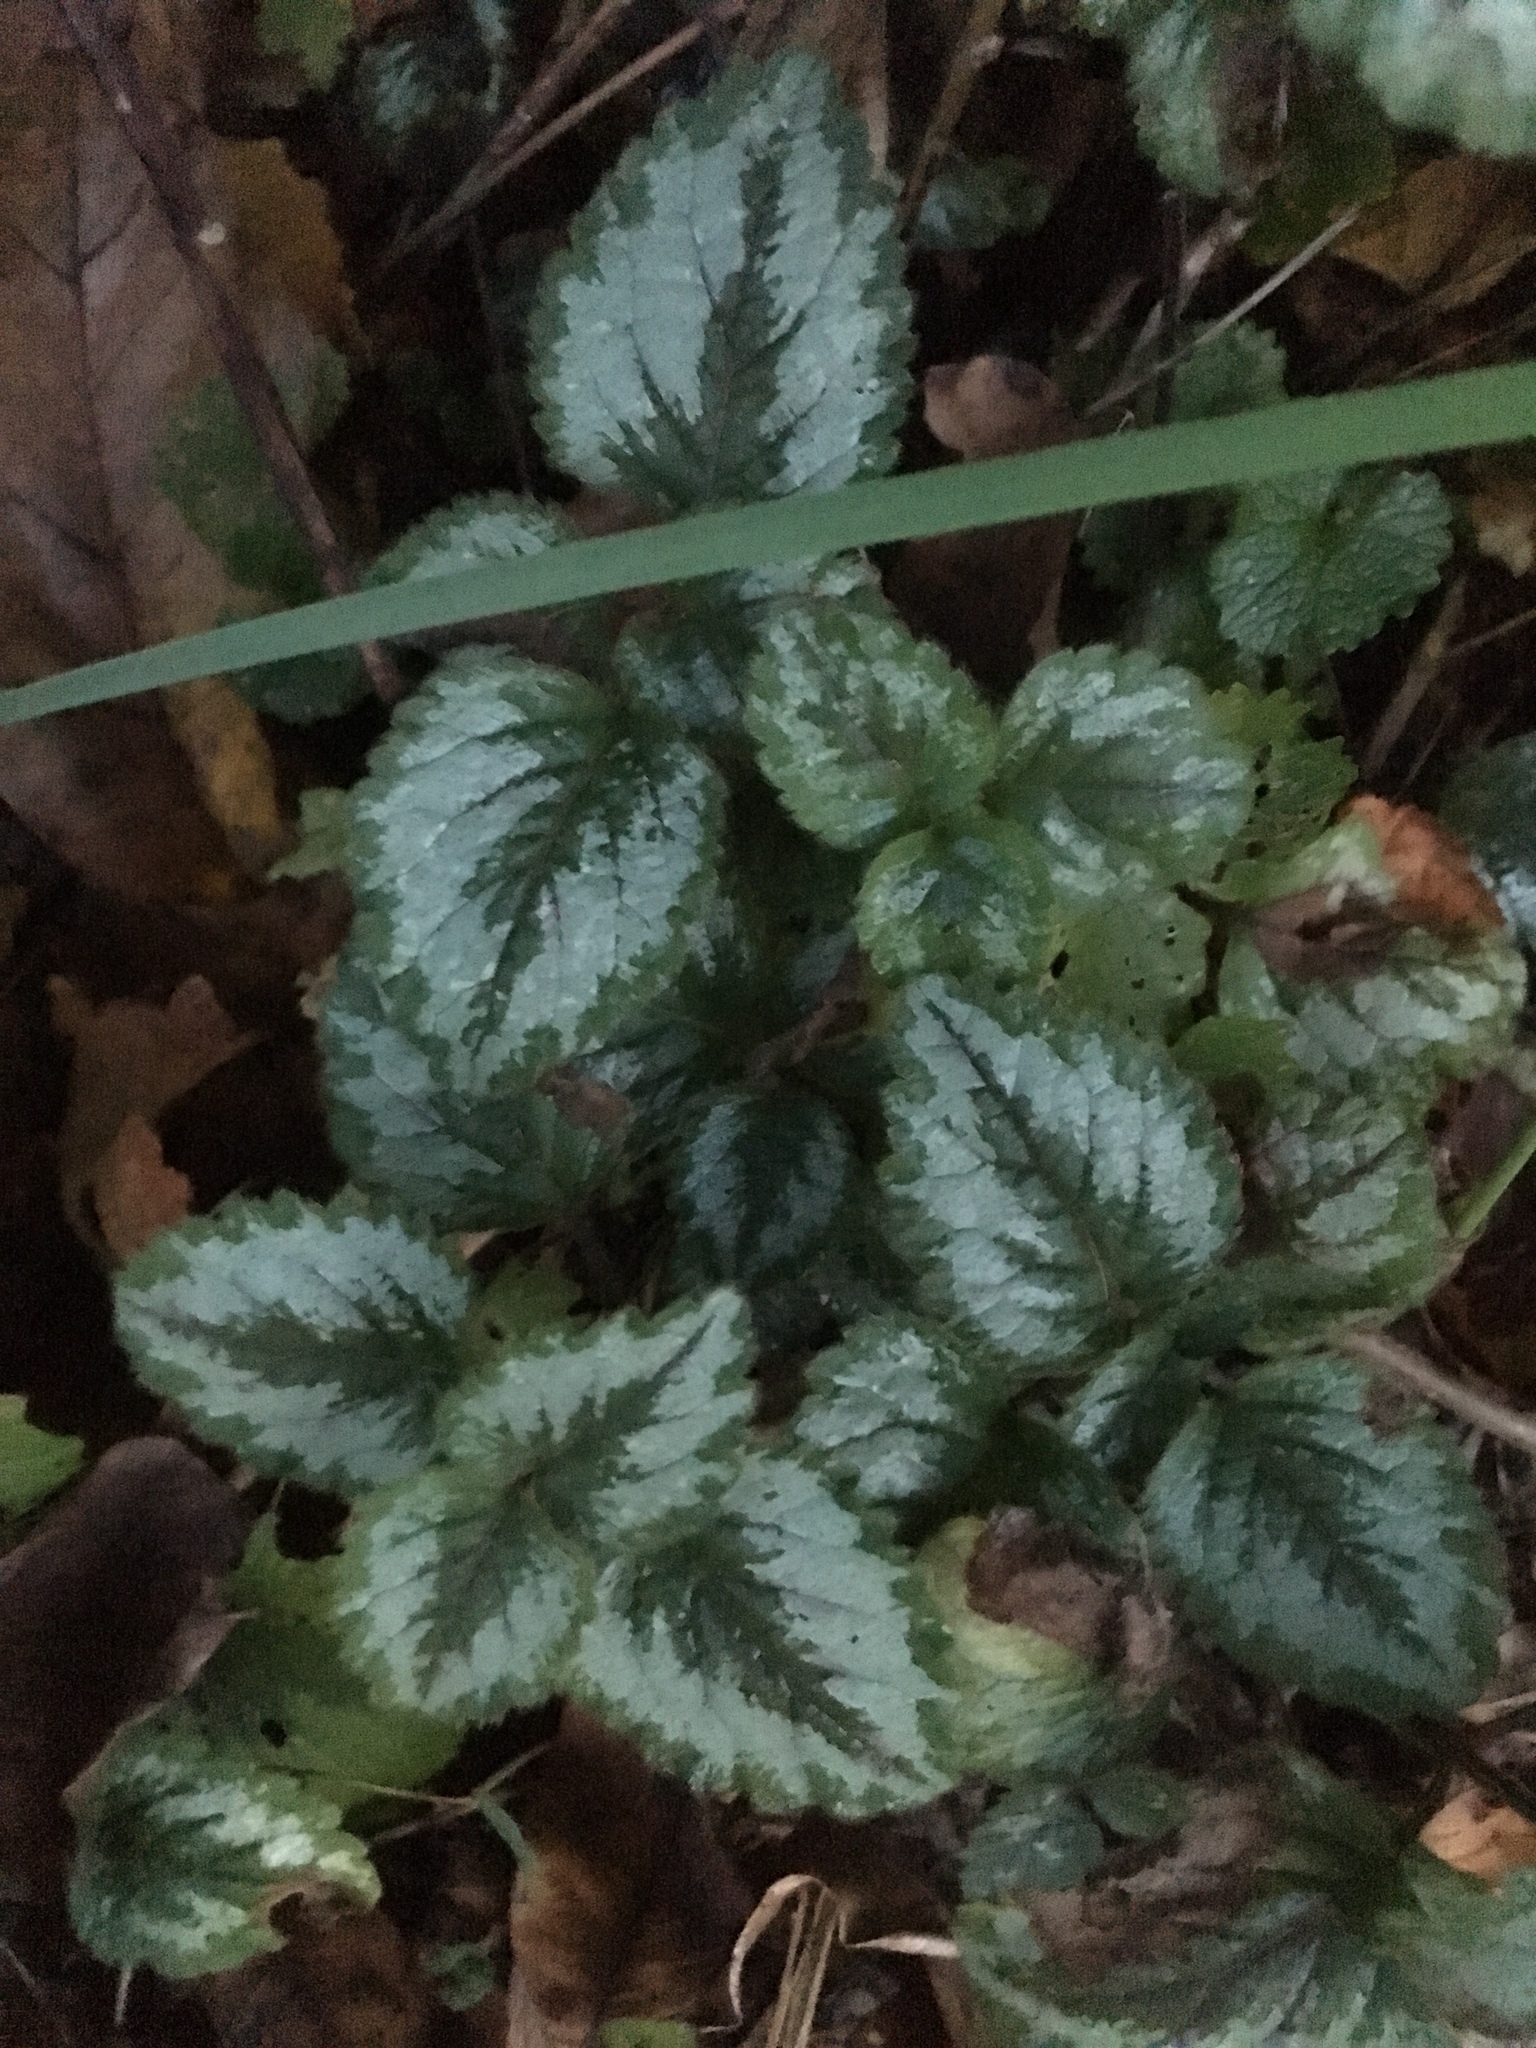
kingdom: Plantae
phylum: Tracheophyta
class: Magnoliopsida
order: Lamiales
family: Lamiaceae
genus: Lamium
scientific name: Lamium galeobdolon
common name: Yellow archangel
